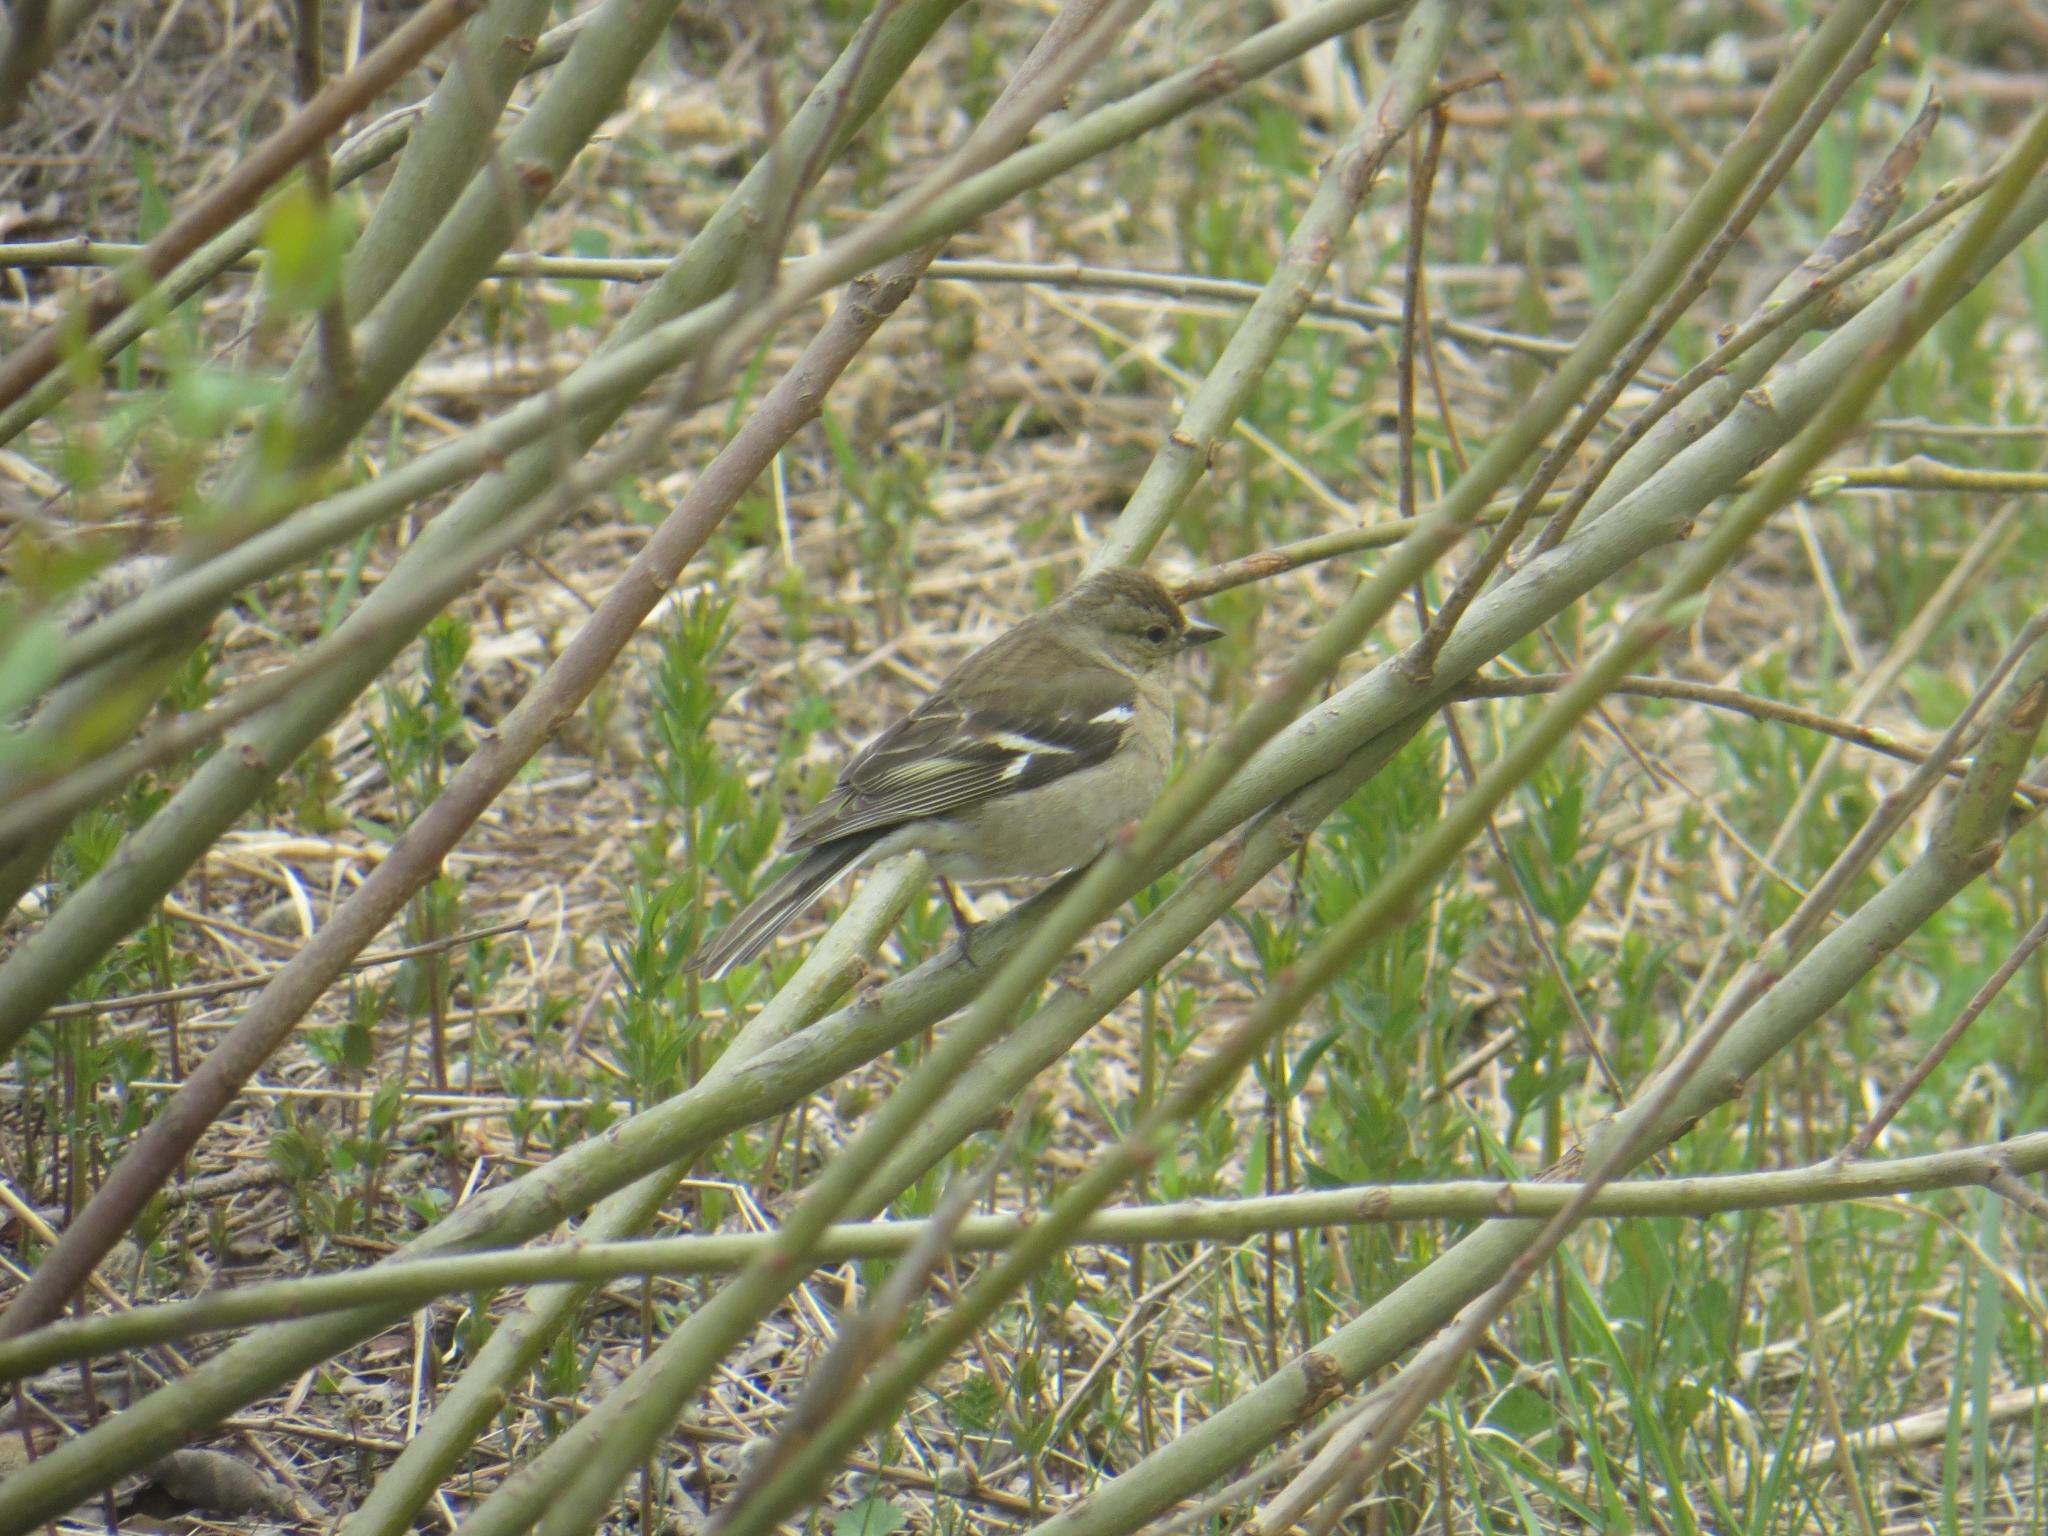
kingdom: Animalia
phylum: Chordata
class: Aves
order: Passeriformes
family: Fringillidae
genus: Fringilla
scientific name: Fringilla coelebs
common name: Common chaffinch
